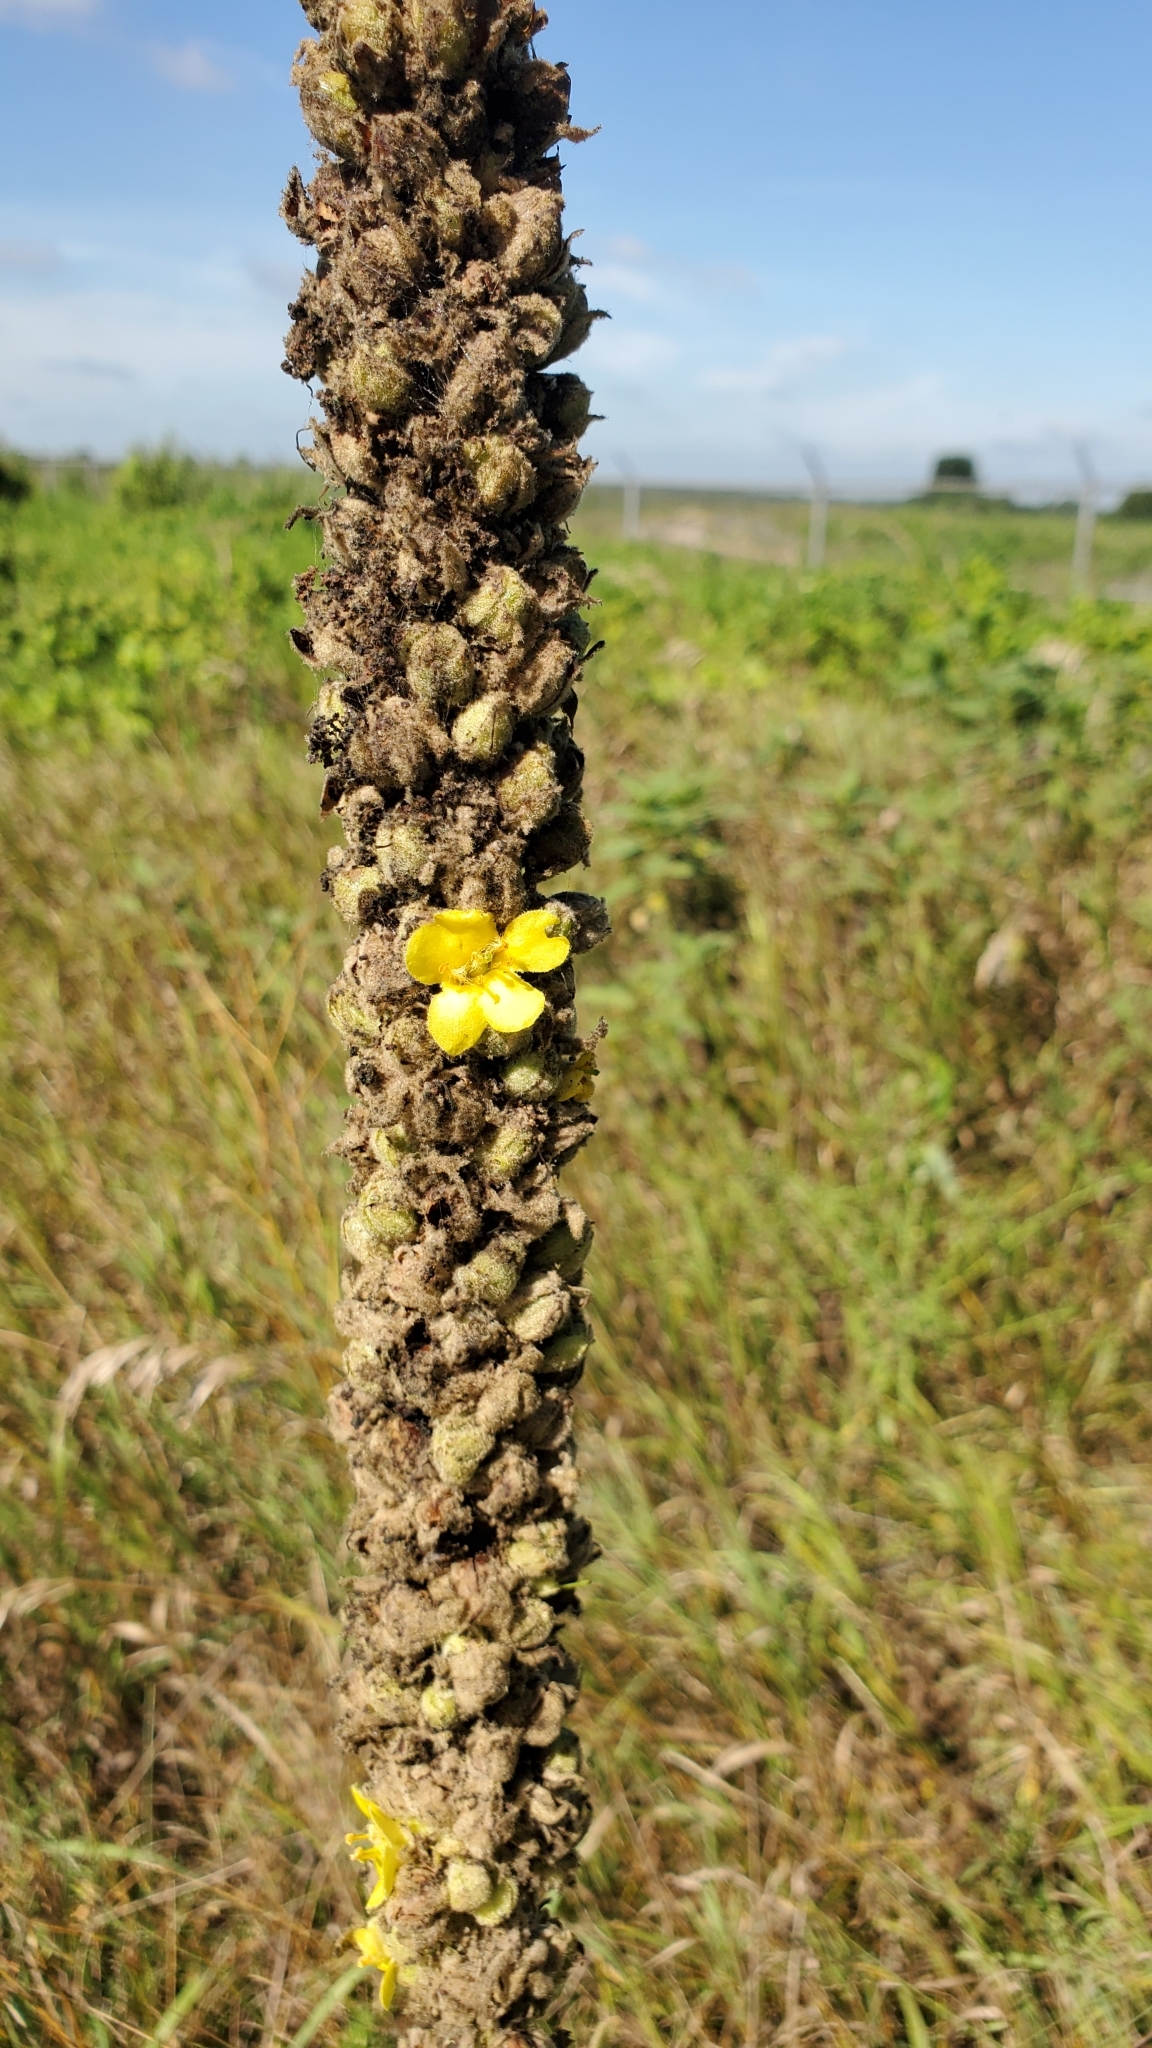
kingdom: Plantae
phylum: Tracheophyta
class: Magnoliopsida
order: Lamiales
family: Scrophulariaceae
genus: Verbascum
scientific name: Verbascum thapsus
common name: Common mullein
